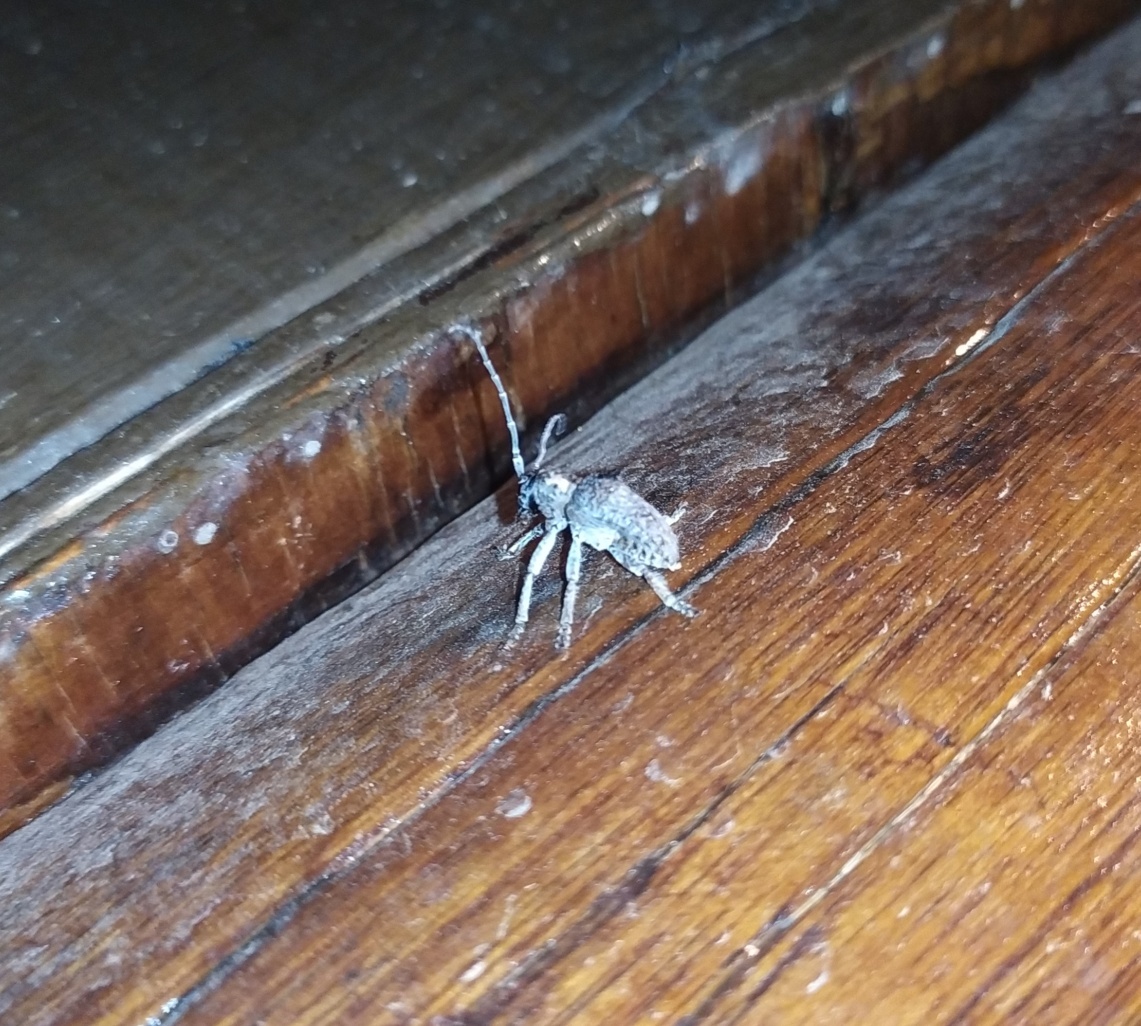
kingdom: Animalia
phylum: Arthropoda
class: Insecta
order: Coleoptera
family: Cerambycidae
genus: Tetradia
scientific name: Tetradia lophoptera
